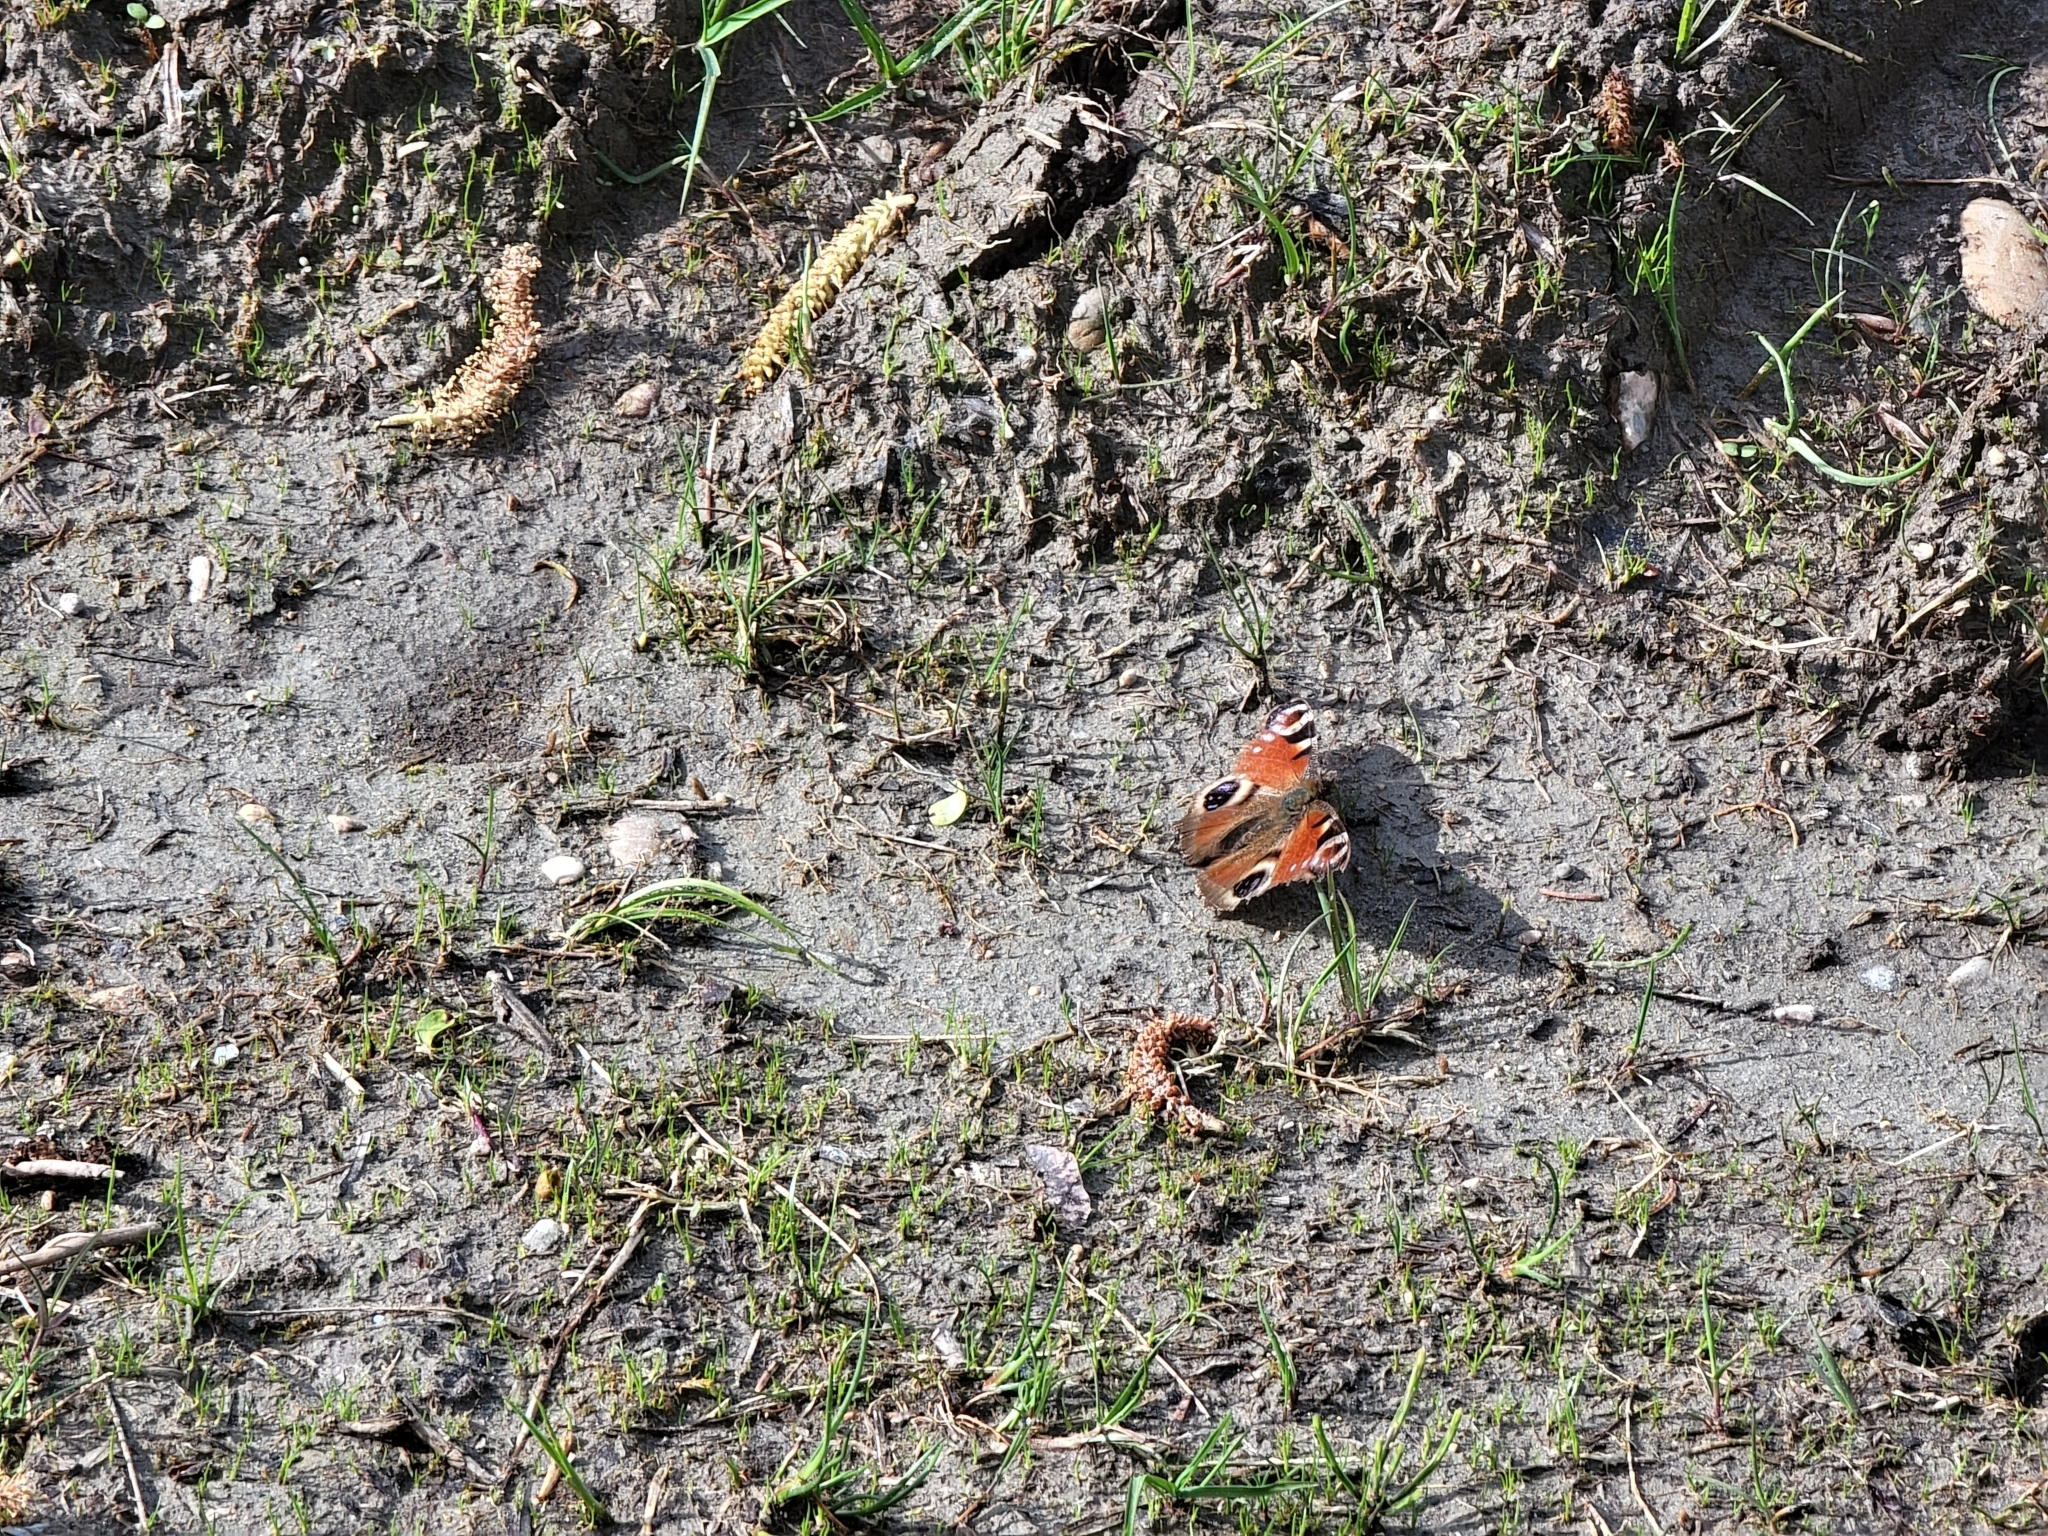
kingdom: Animalia
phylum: Arthropoda
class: Insecta
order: Lepidoptera
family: Nymphalidae
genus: Aglais
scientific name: Aglais io
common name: Peacock
